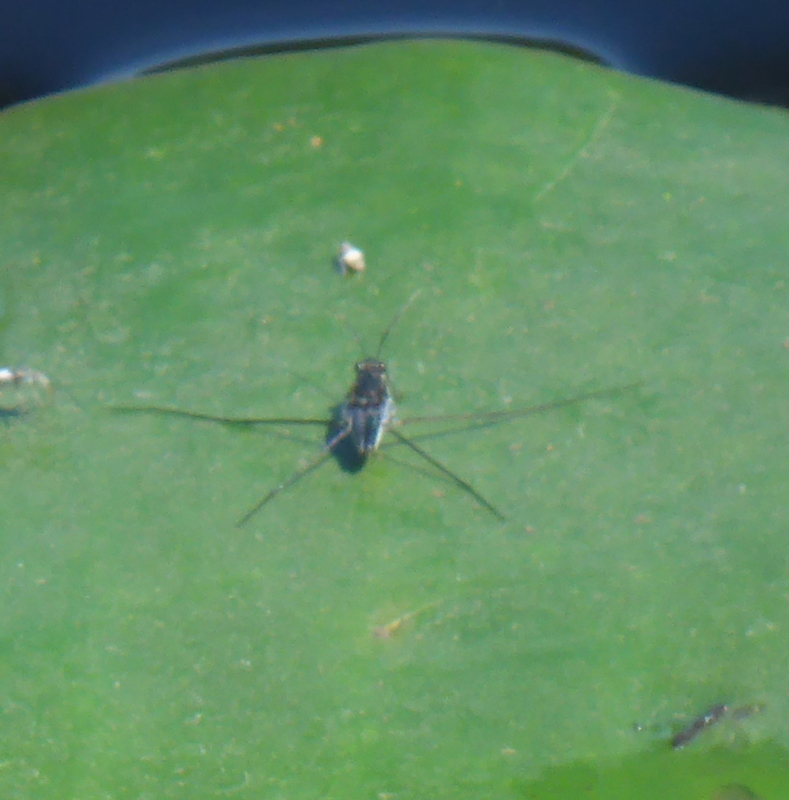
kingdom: Animalia
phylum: Arthropoda
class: Insecta
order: Hemiptera
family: Gerridae
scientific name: Gerridae
